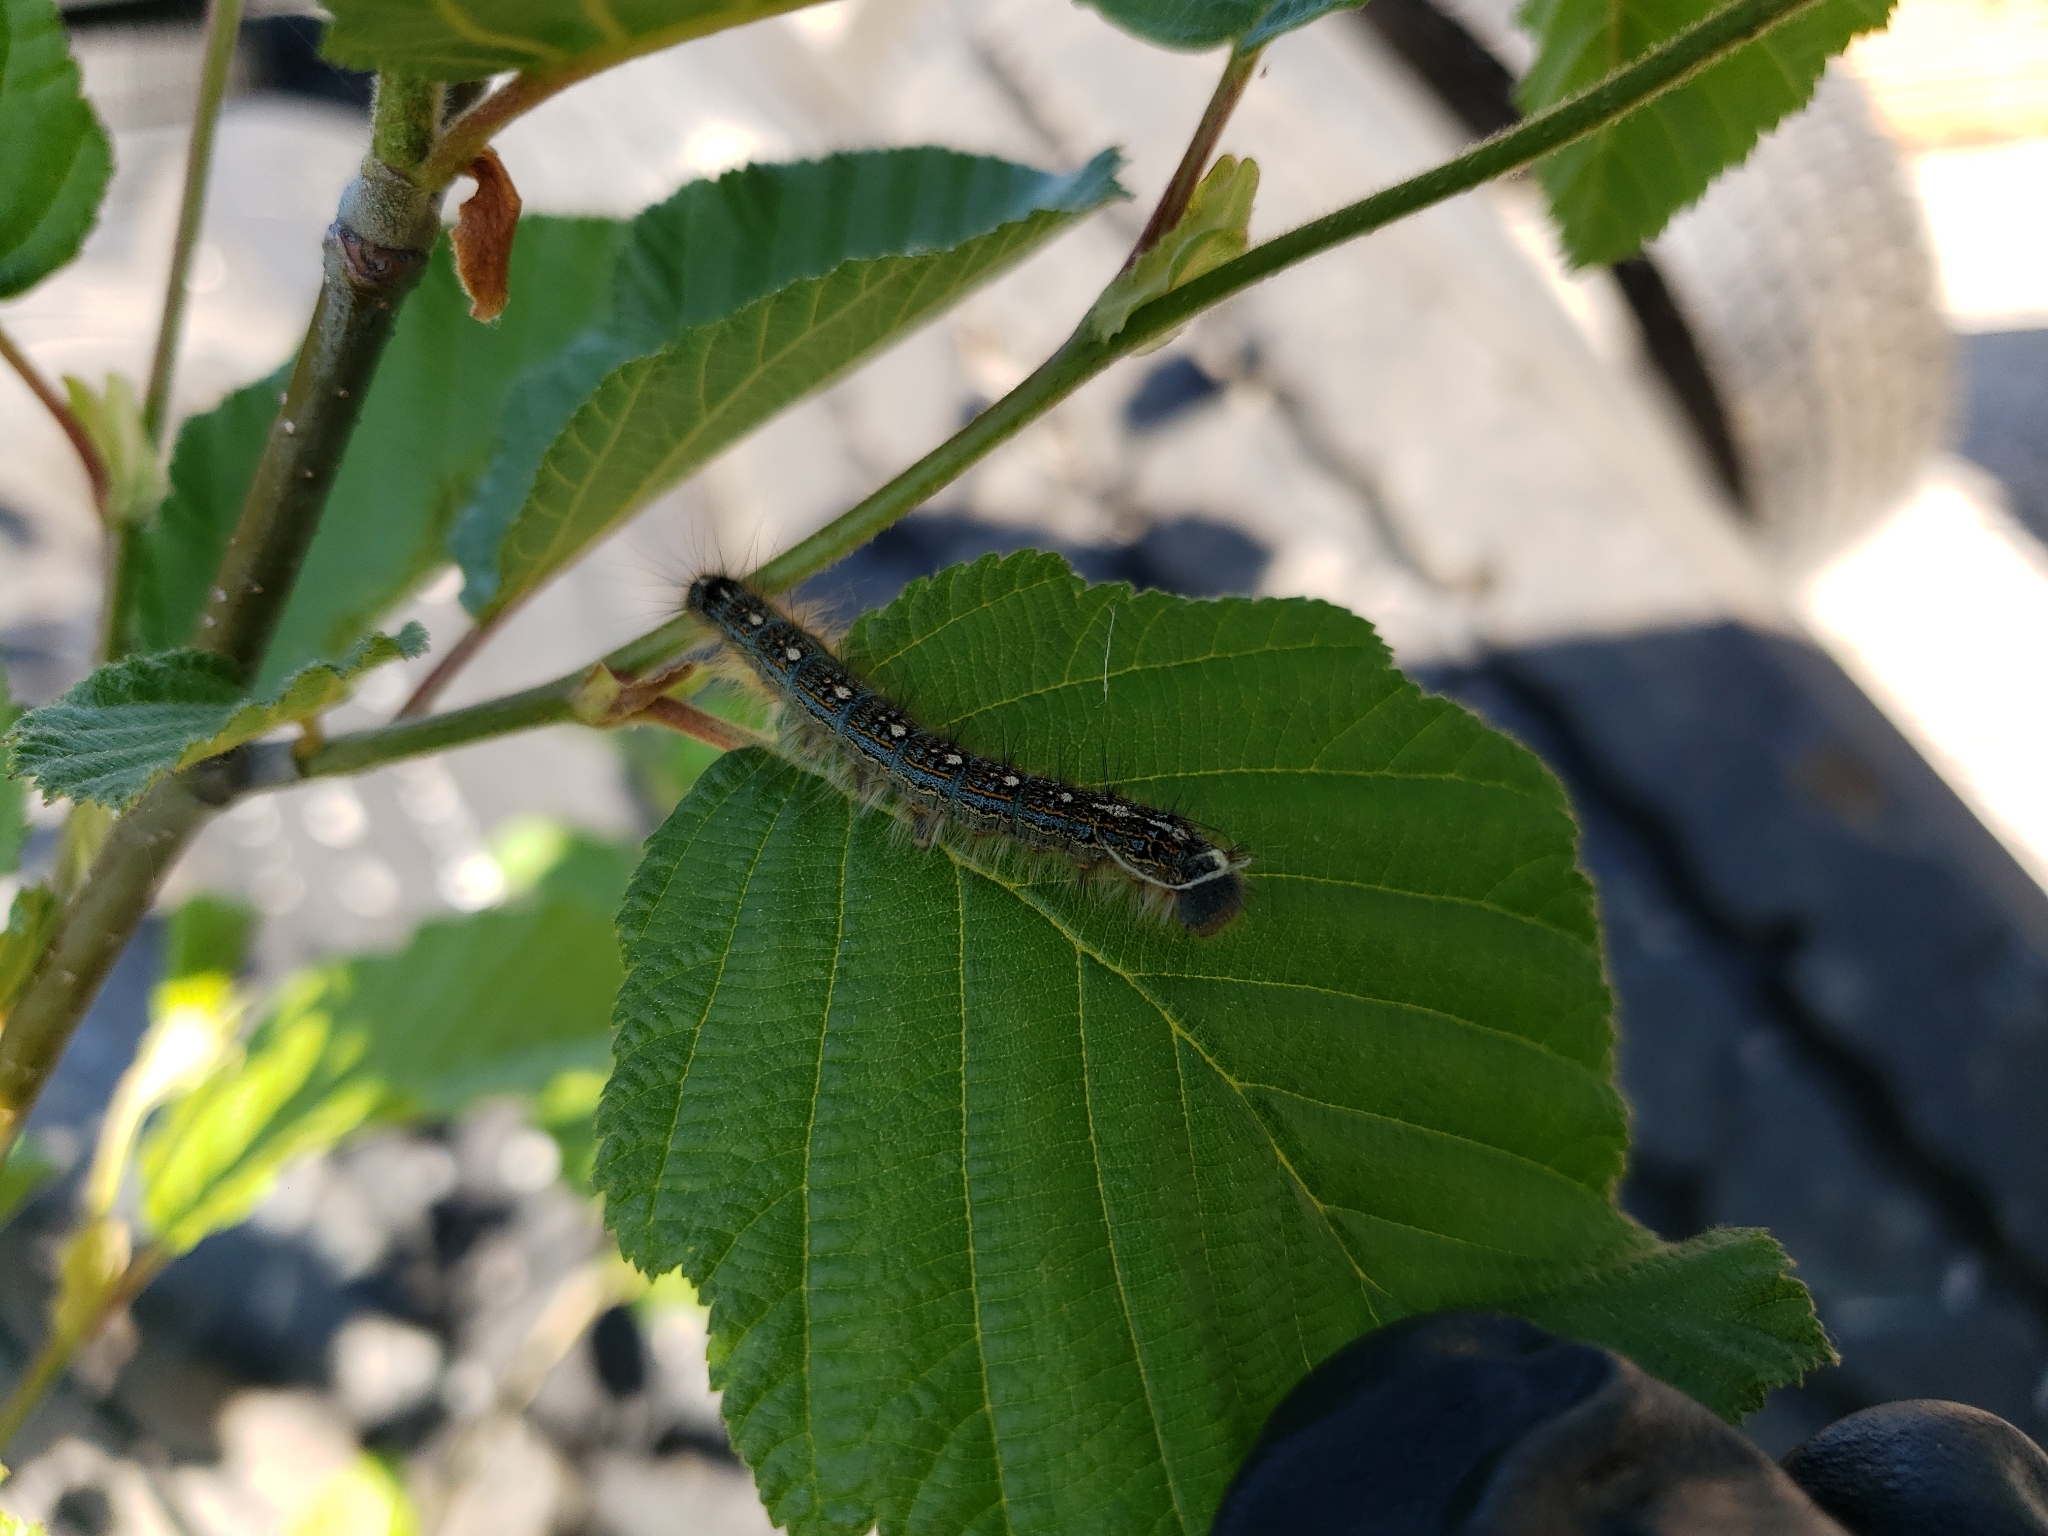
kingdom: Animalia
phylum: Arthropoda
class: Insecta
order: Lepidoptera
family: Lasiocampidae
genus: Malacosoma
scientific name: Malacosoma disstria
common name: Forest tent caterpillar
